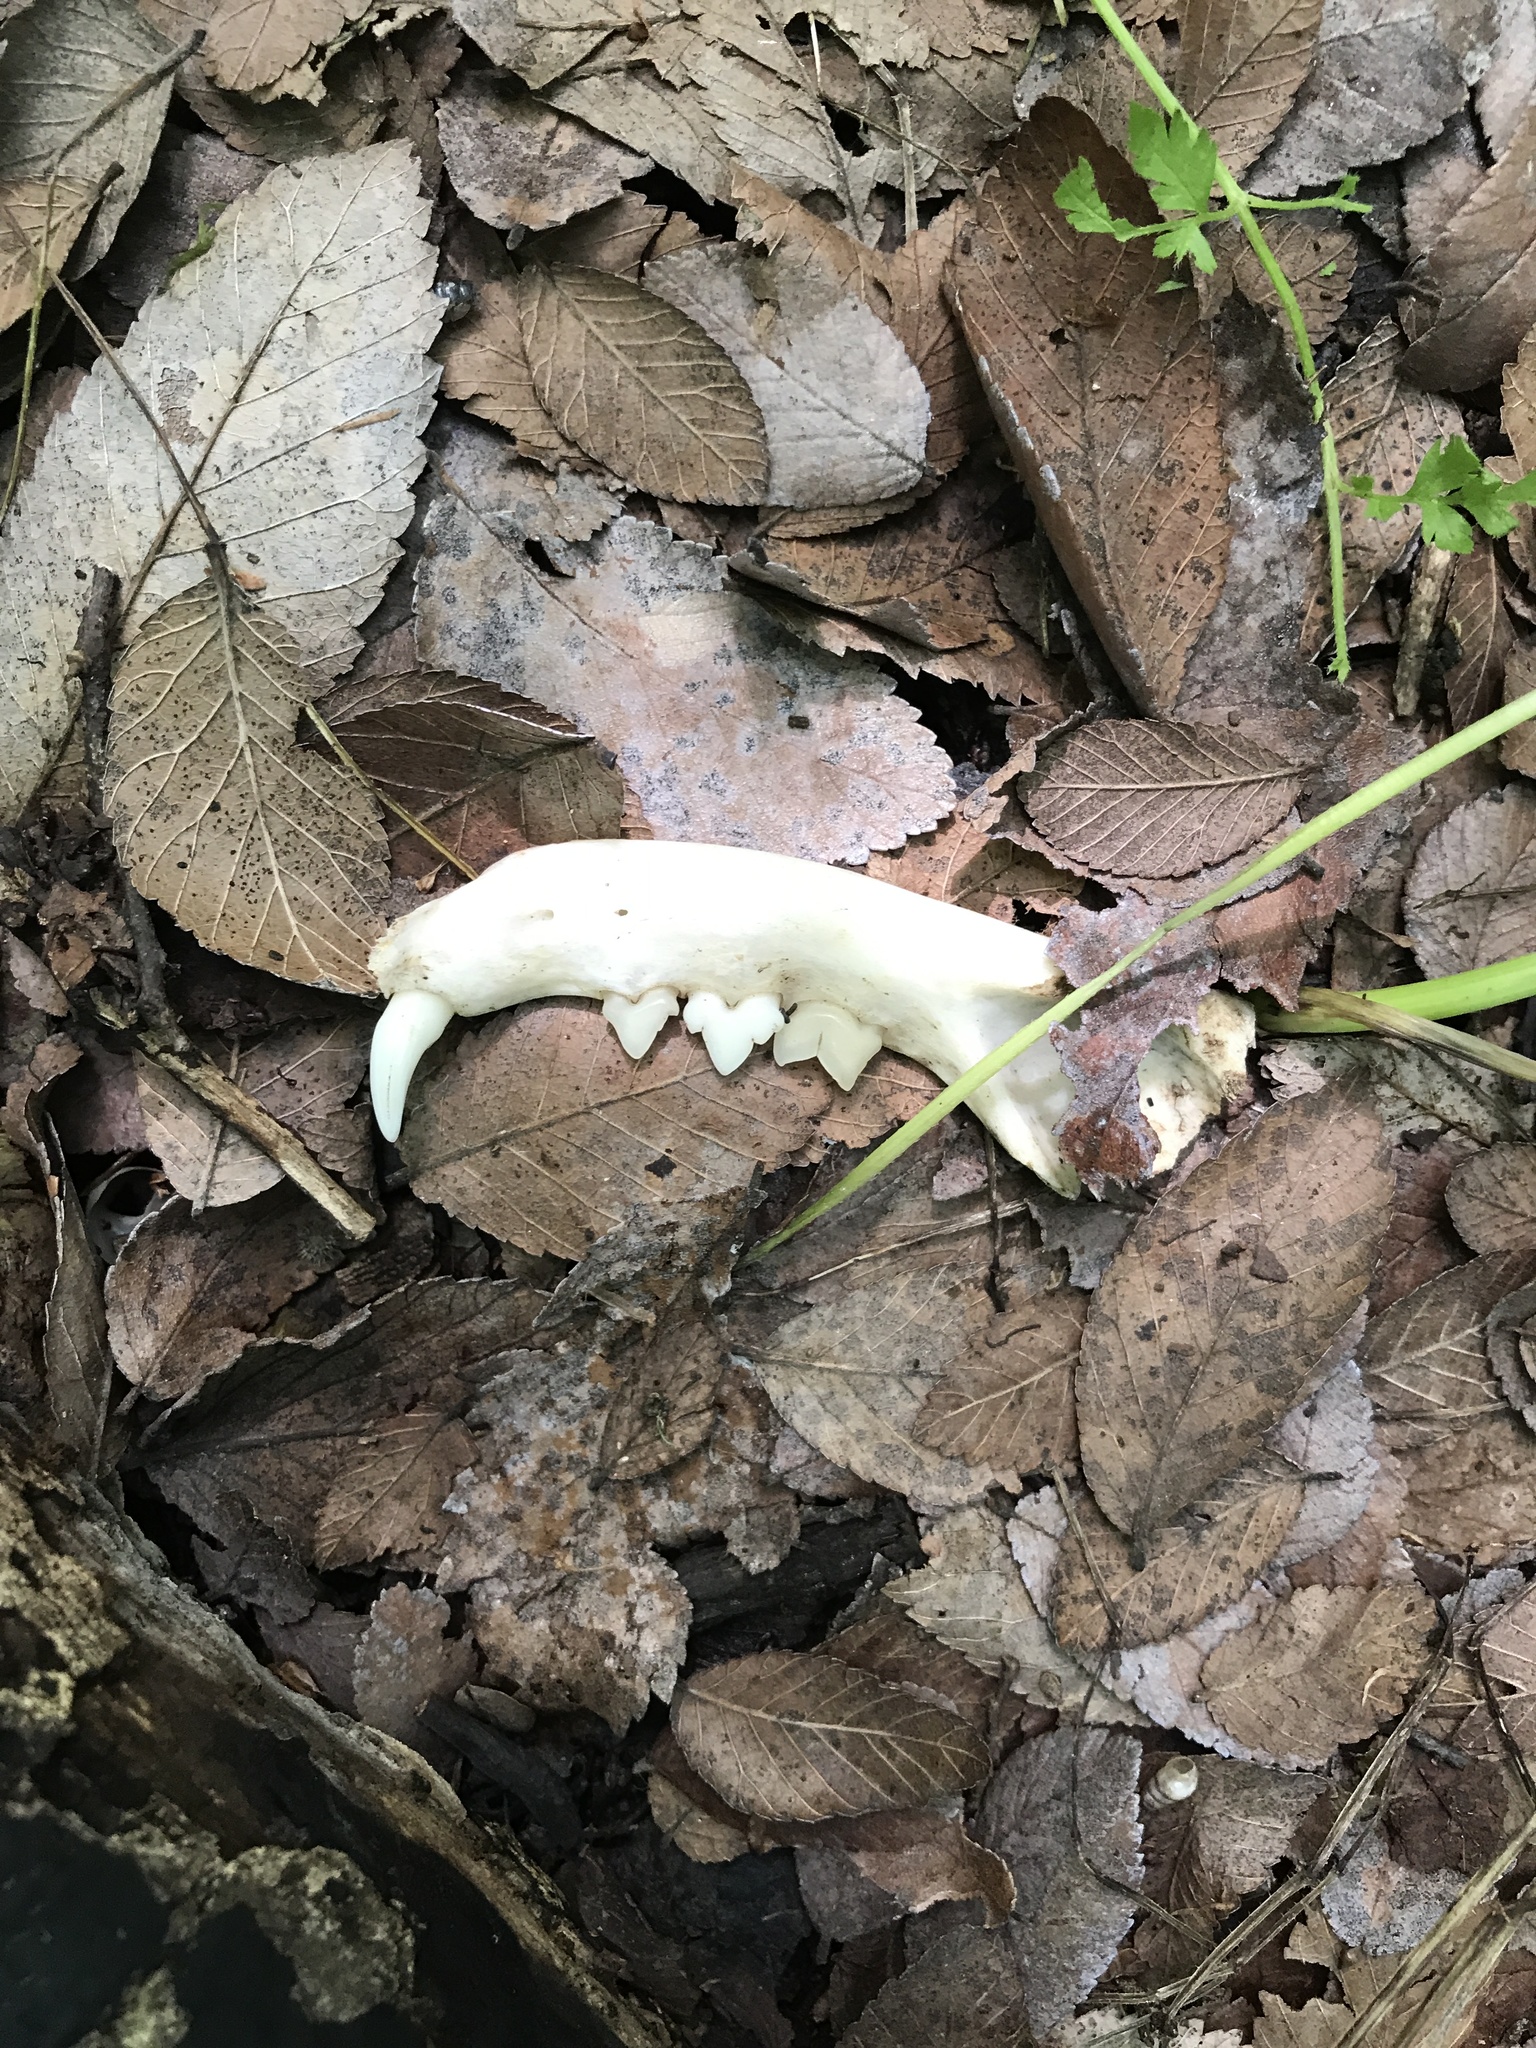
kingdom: Animalia
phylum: Chordata
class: Mammalia
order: Carnivora
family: Felidae
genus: Felis
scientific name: Felis catus
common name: Domestic cat
